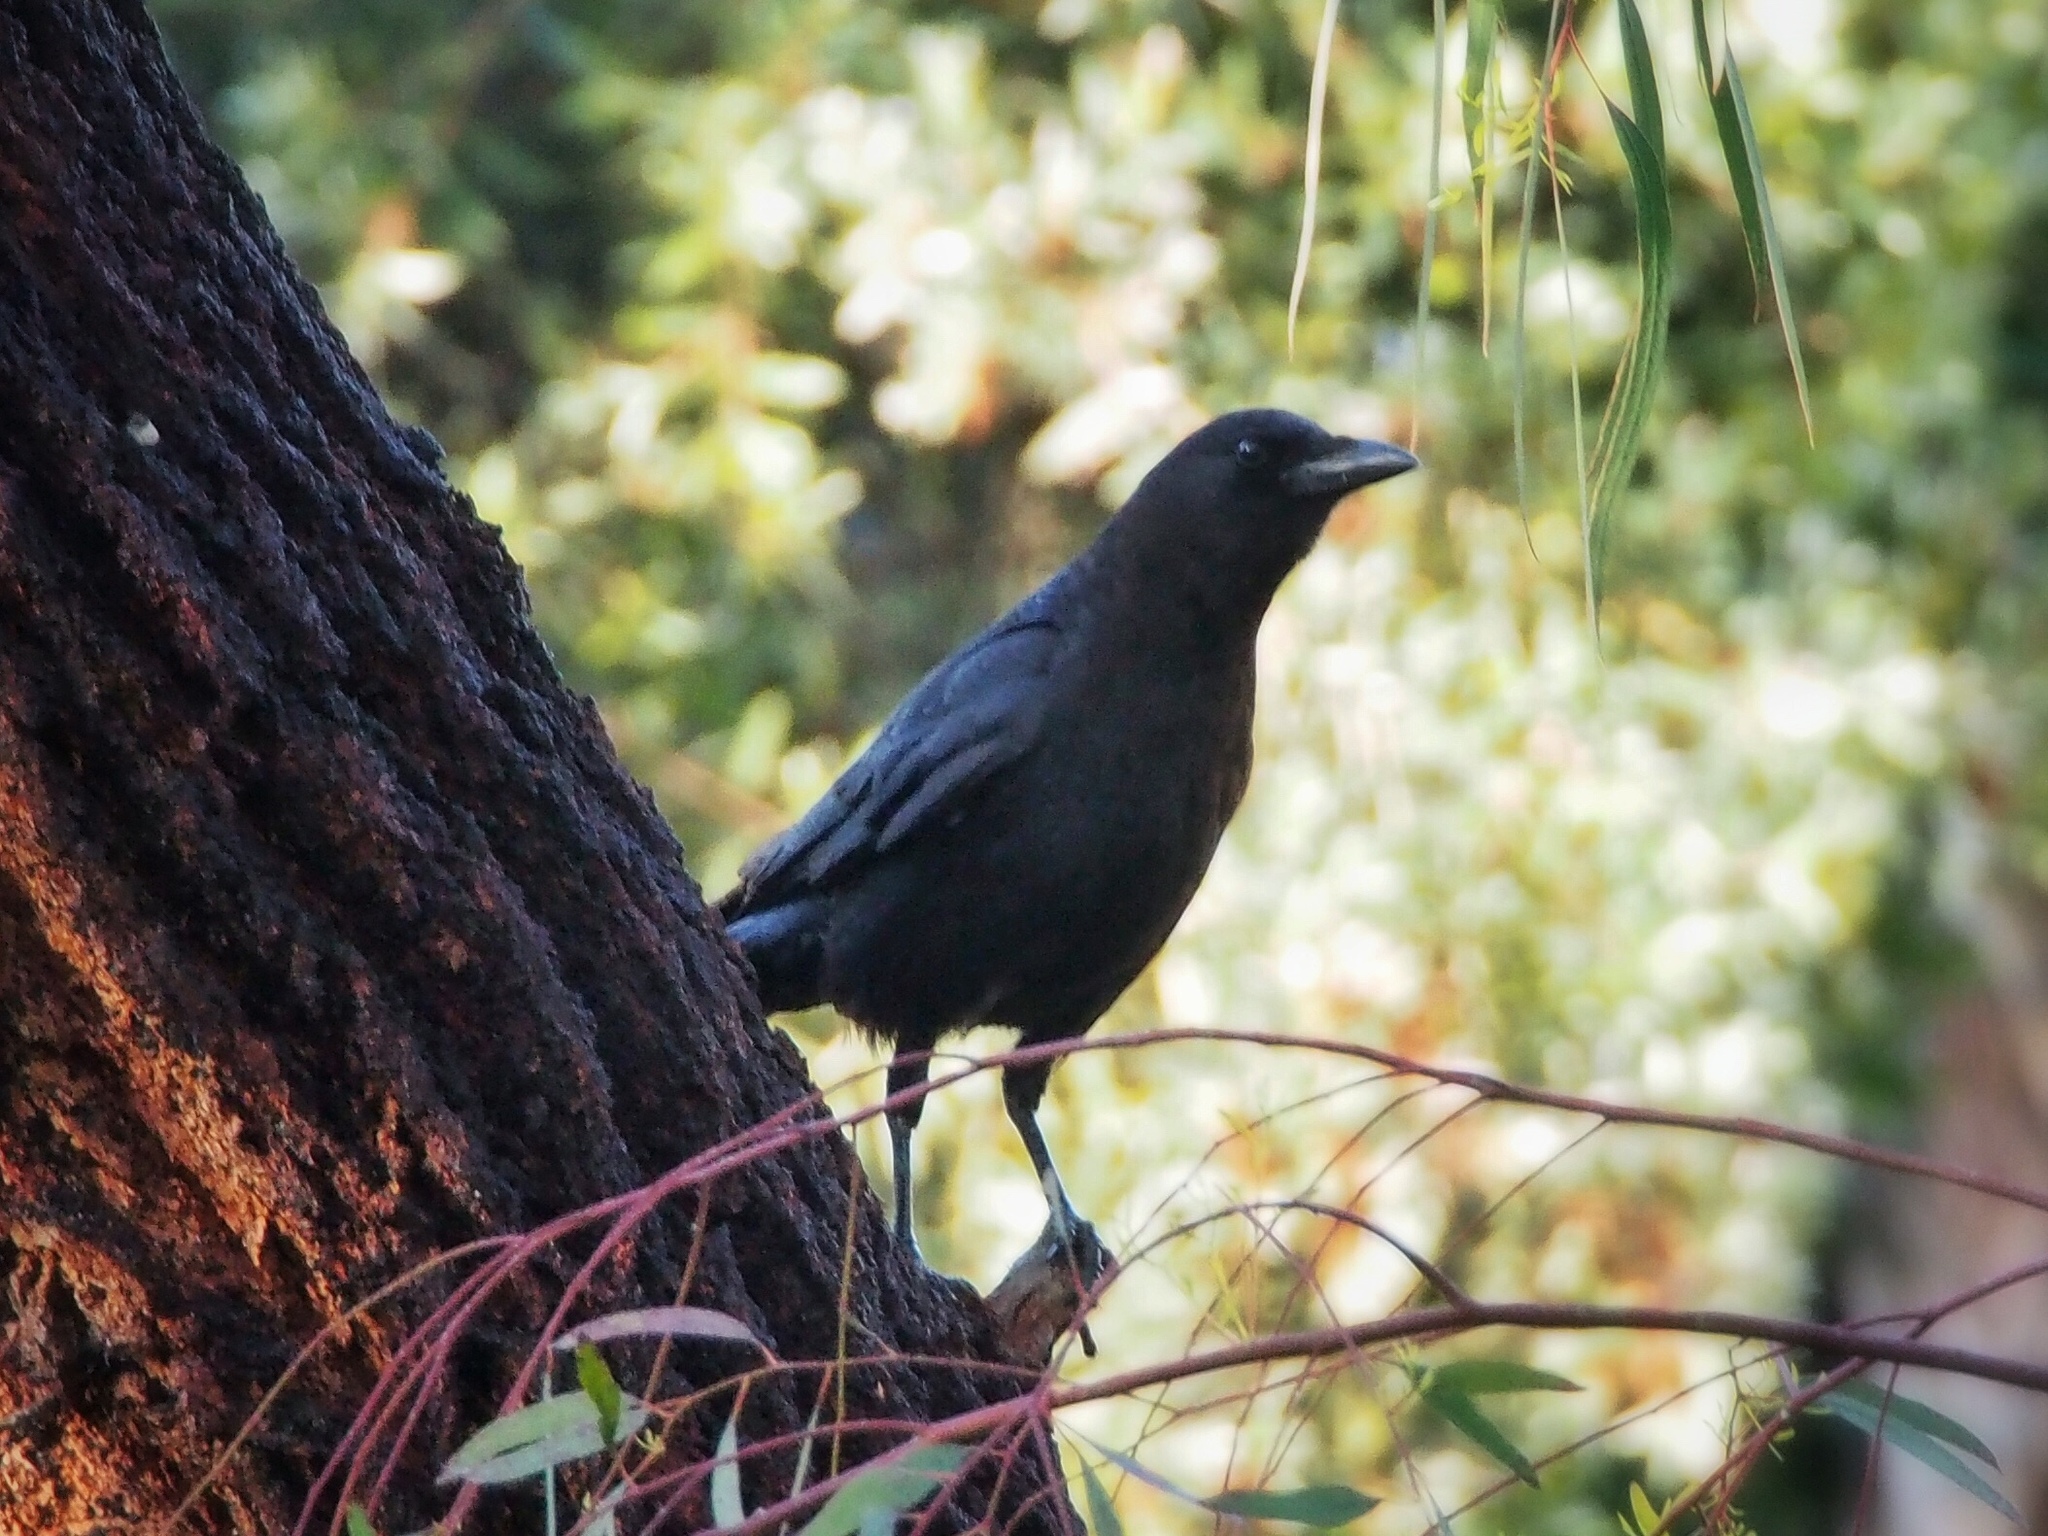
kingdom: Animalia
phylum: Chordata
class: Aves
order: Passeriformes
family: Corvidae
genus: Corvus
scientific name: Corvus brachyrhynchos
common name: American crow
